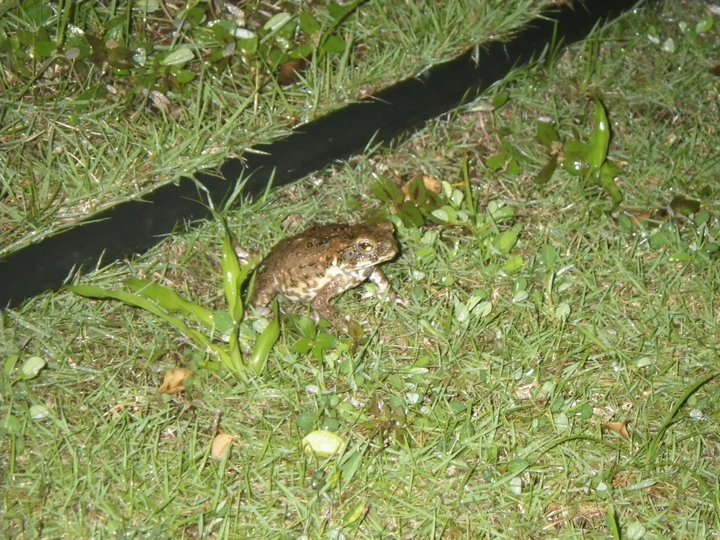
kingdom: Animalia
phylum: Chordata
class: Amphibia
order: Anura
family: Bufonidae
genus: Rhinella
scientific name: Rhinella marina
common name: Cane toad
